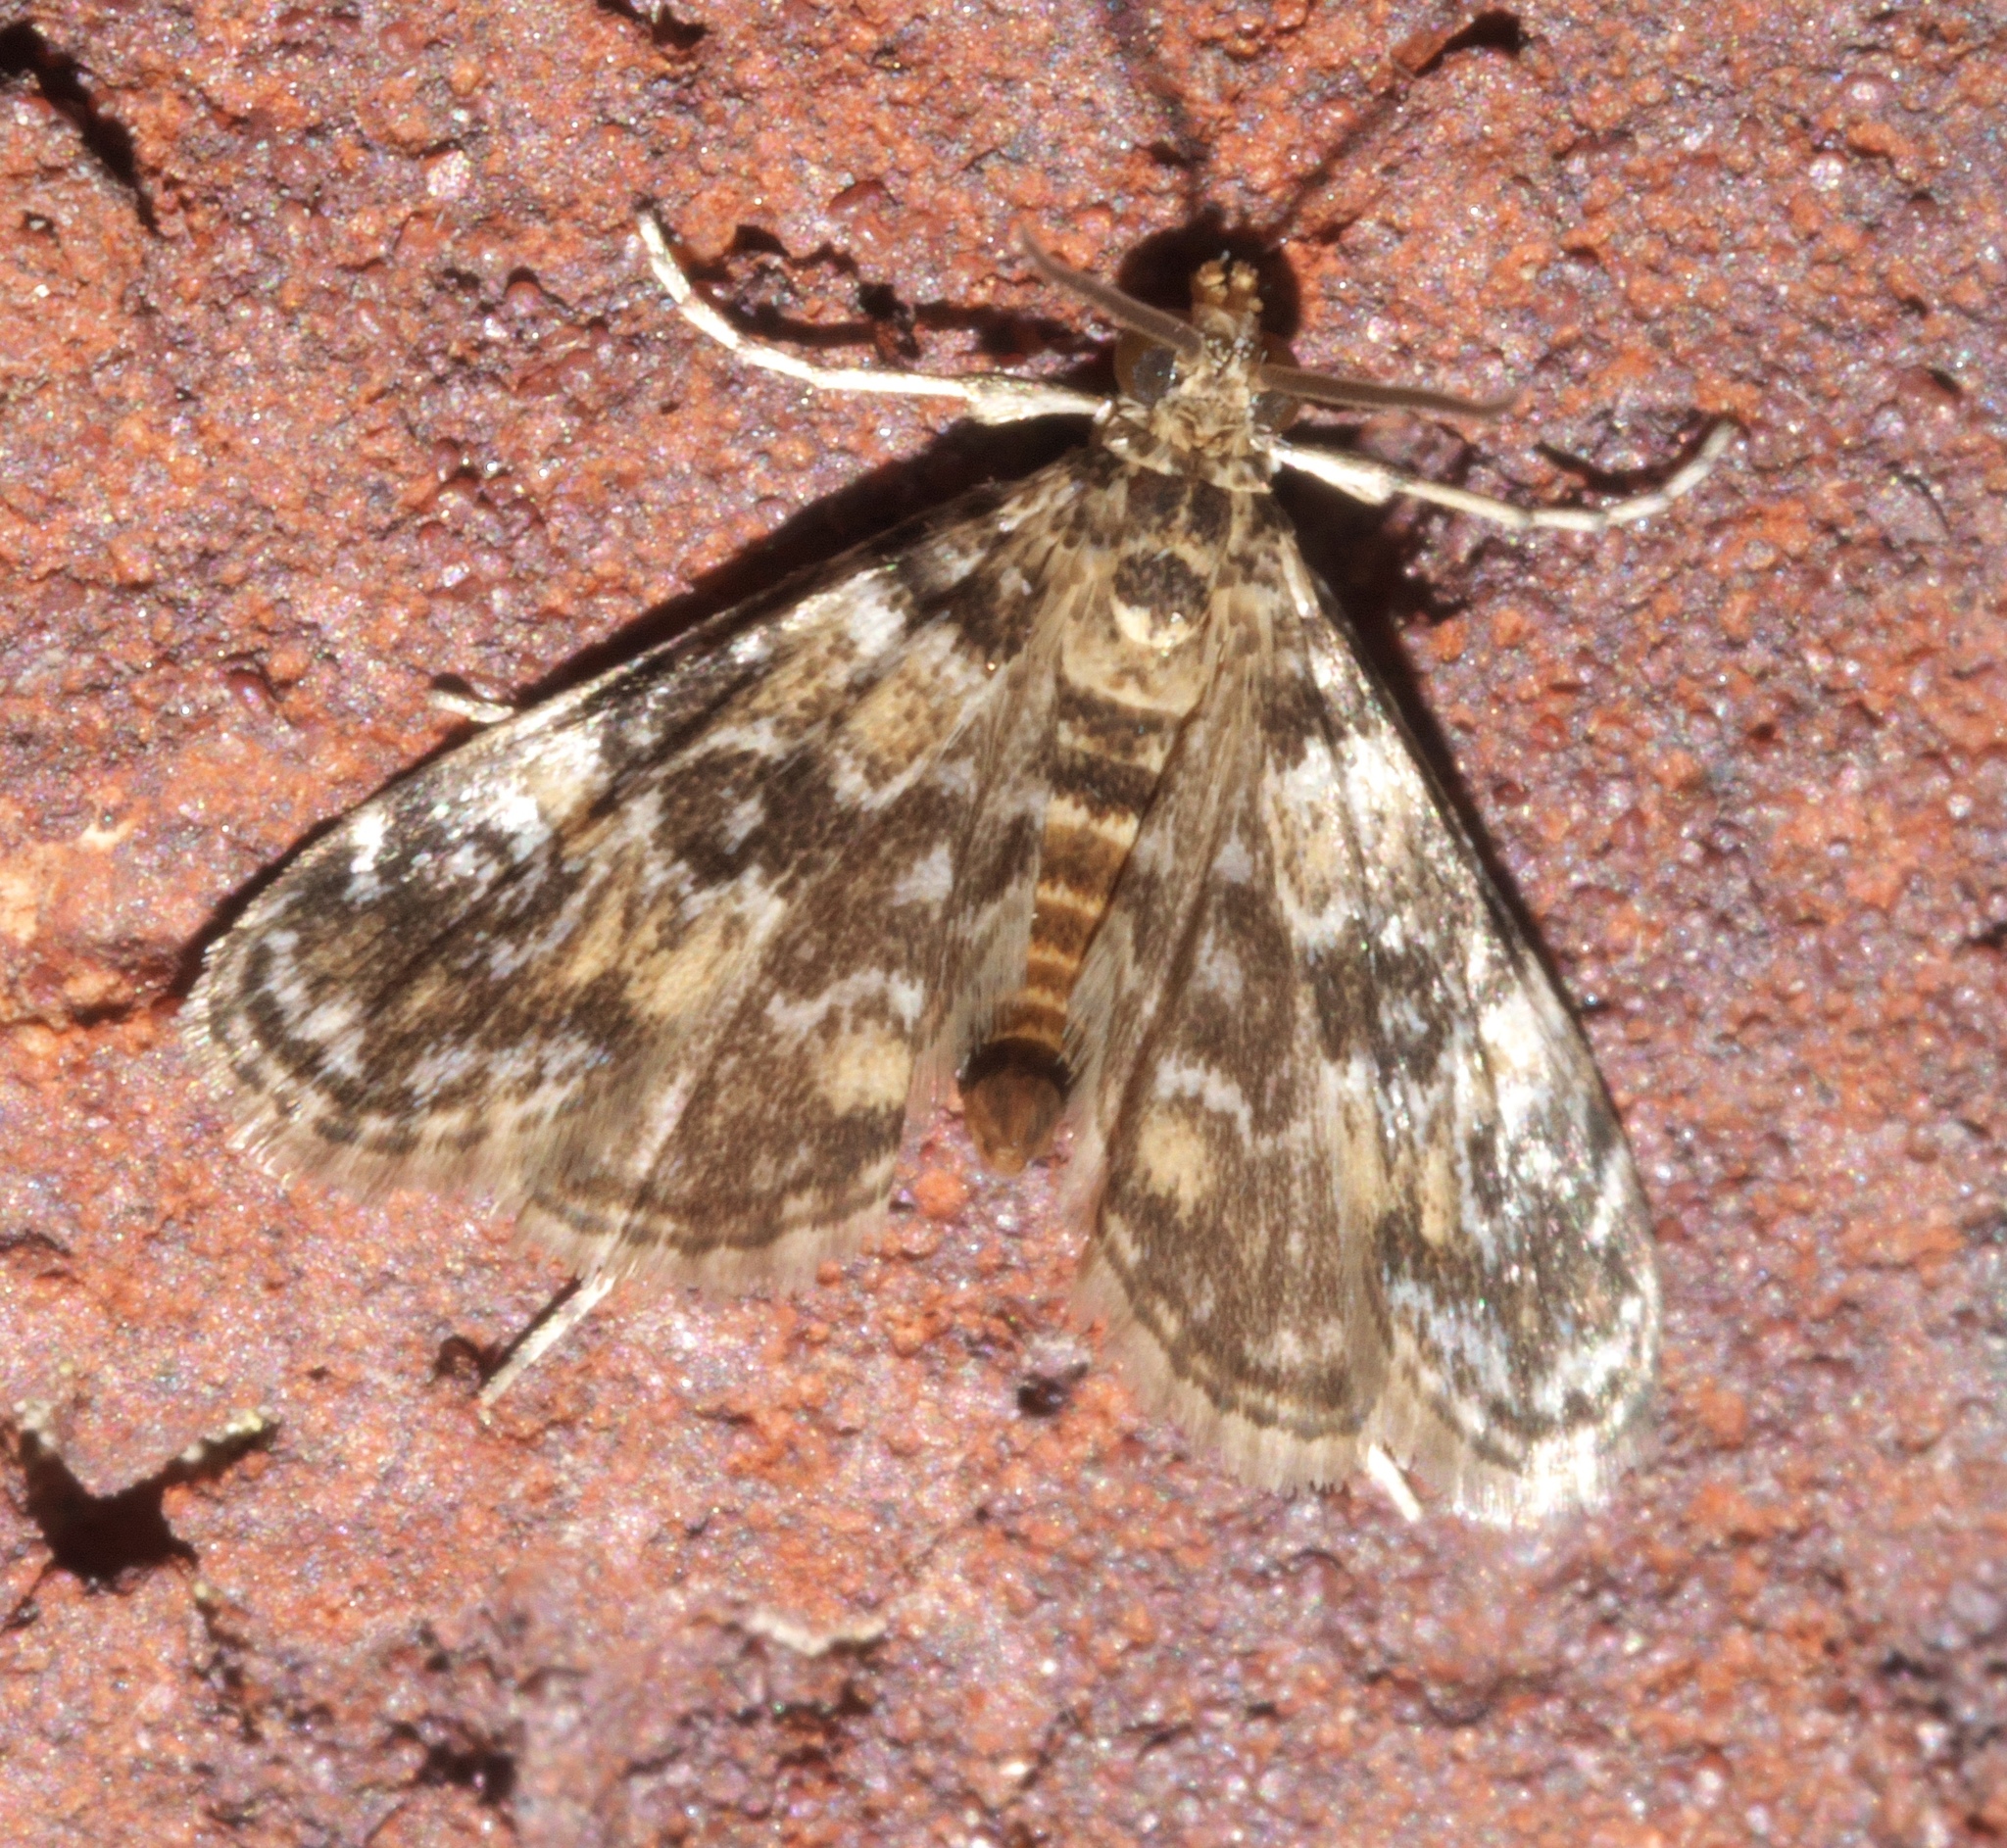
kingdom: Animalia
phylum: Arthropoda
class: Insecta
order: Lepidoptera
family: Crambidae
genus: Elophila
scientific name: Elophila obliteralis
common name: Waterlily leafcutter moth
